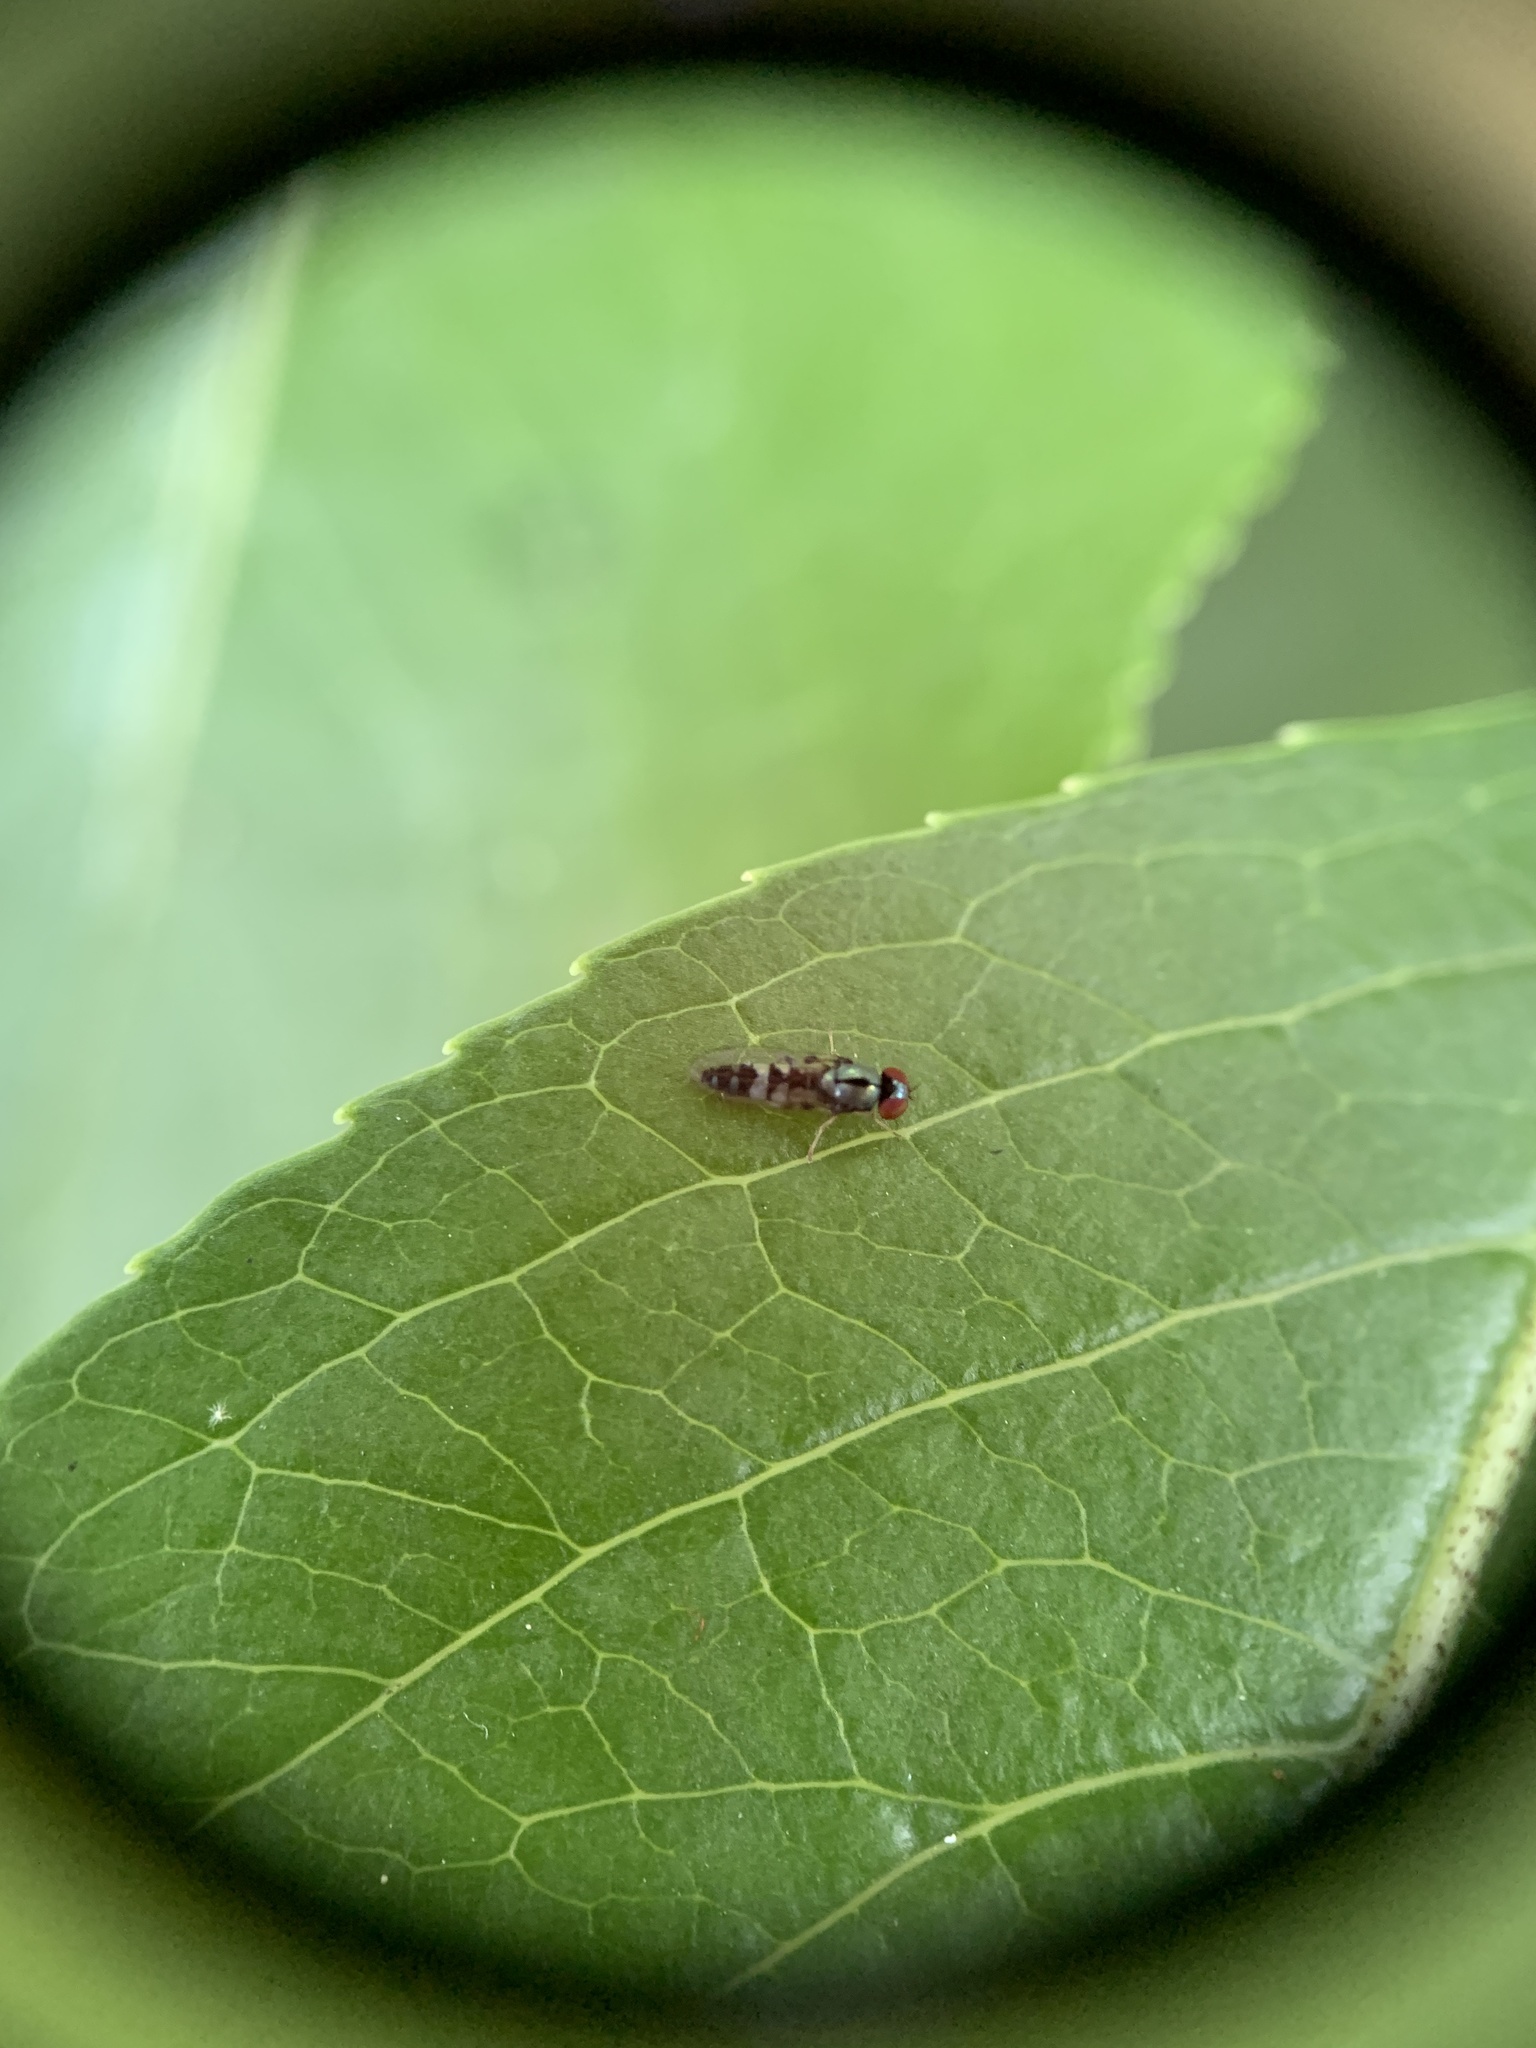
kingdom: Animalia
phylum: Arthropoda
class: Insecta
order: Diptera
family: Platypezidae
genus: Bertamyia
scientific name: Bertamyia notata
